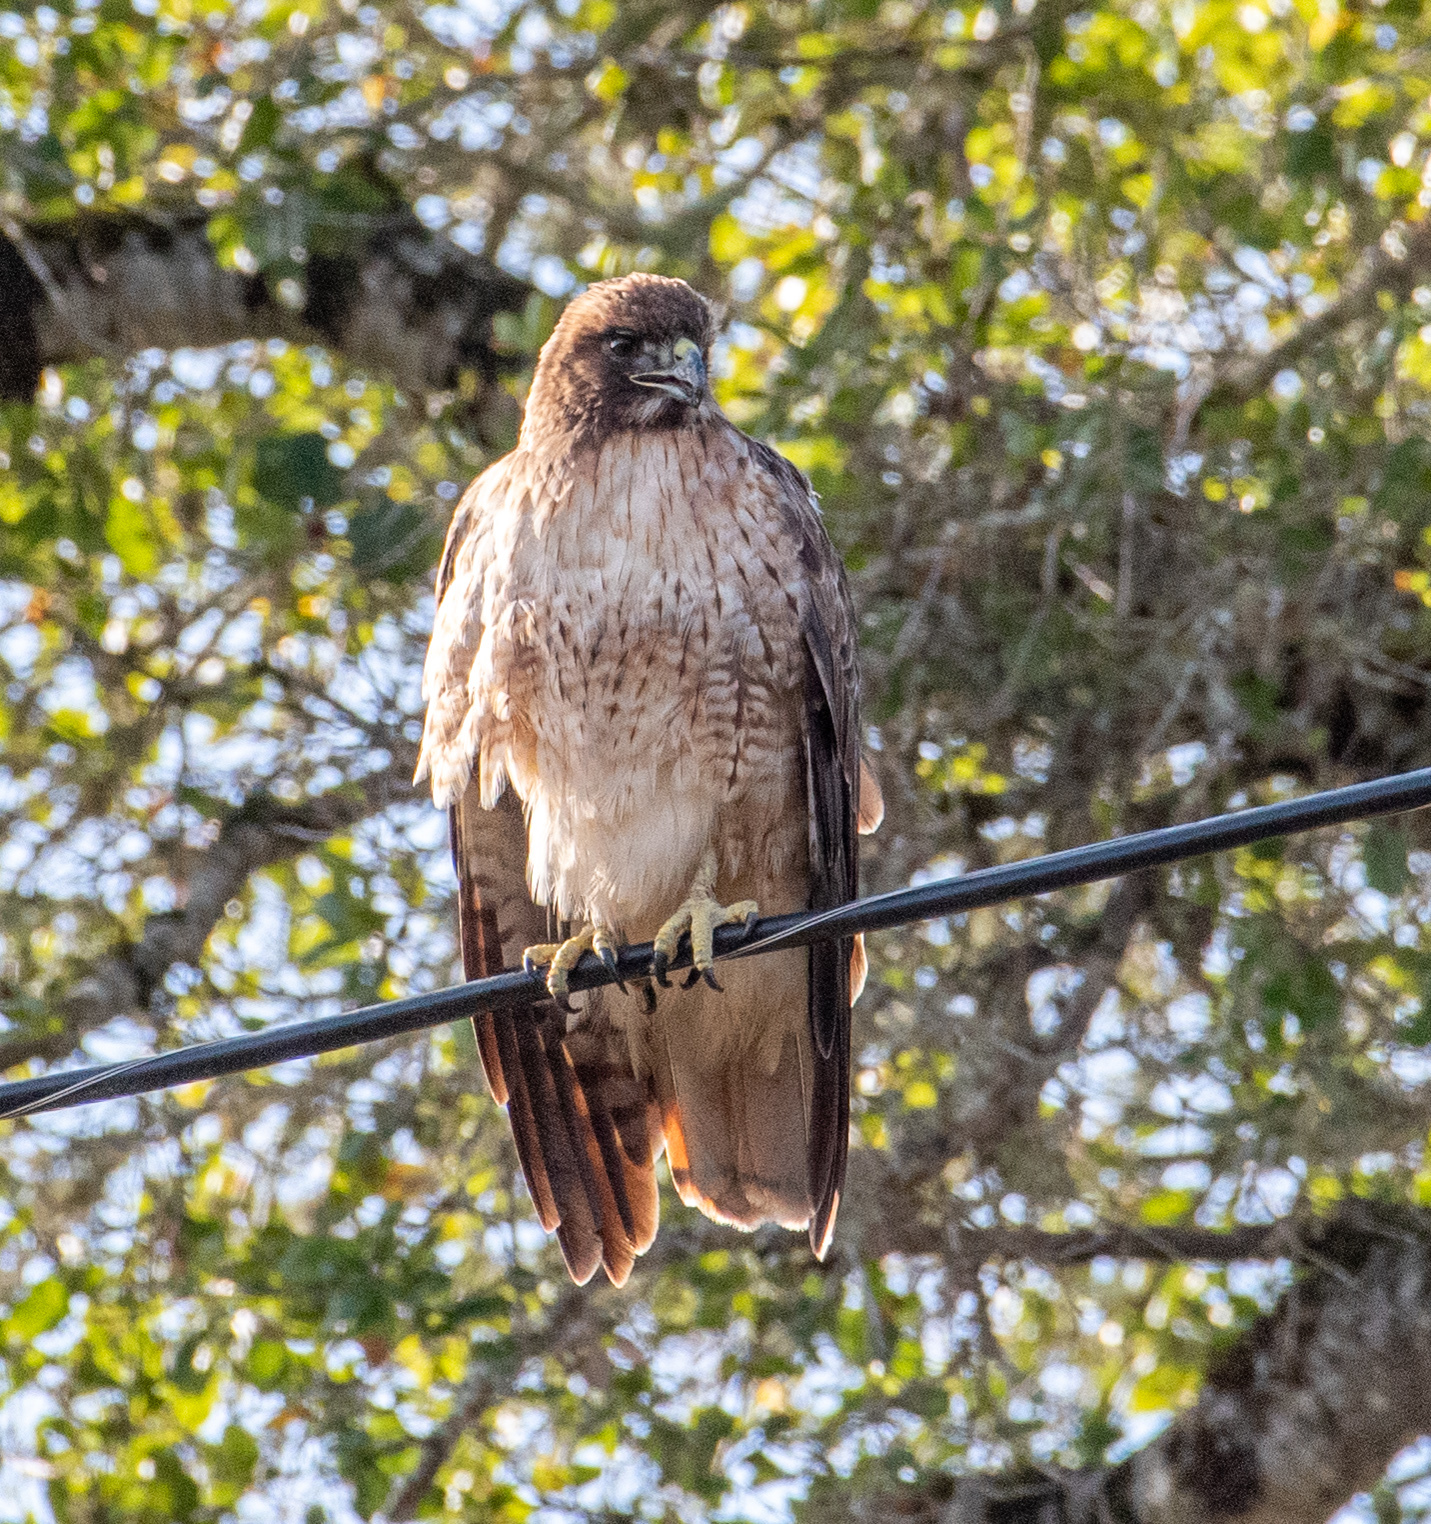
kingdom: Animalia
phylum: Chordata
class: Aves
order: Accipitriformes
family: Accipitridae
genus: Buteo
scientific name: Buteo jamaicensis
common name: Red-tailed hawk
